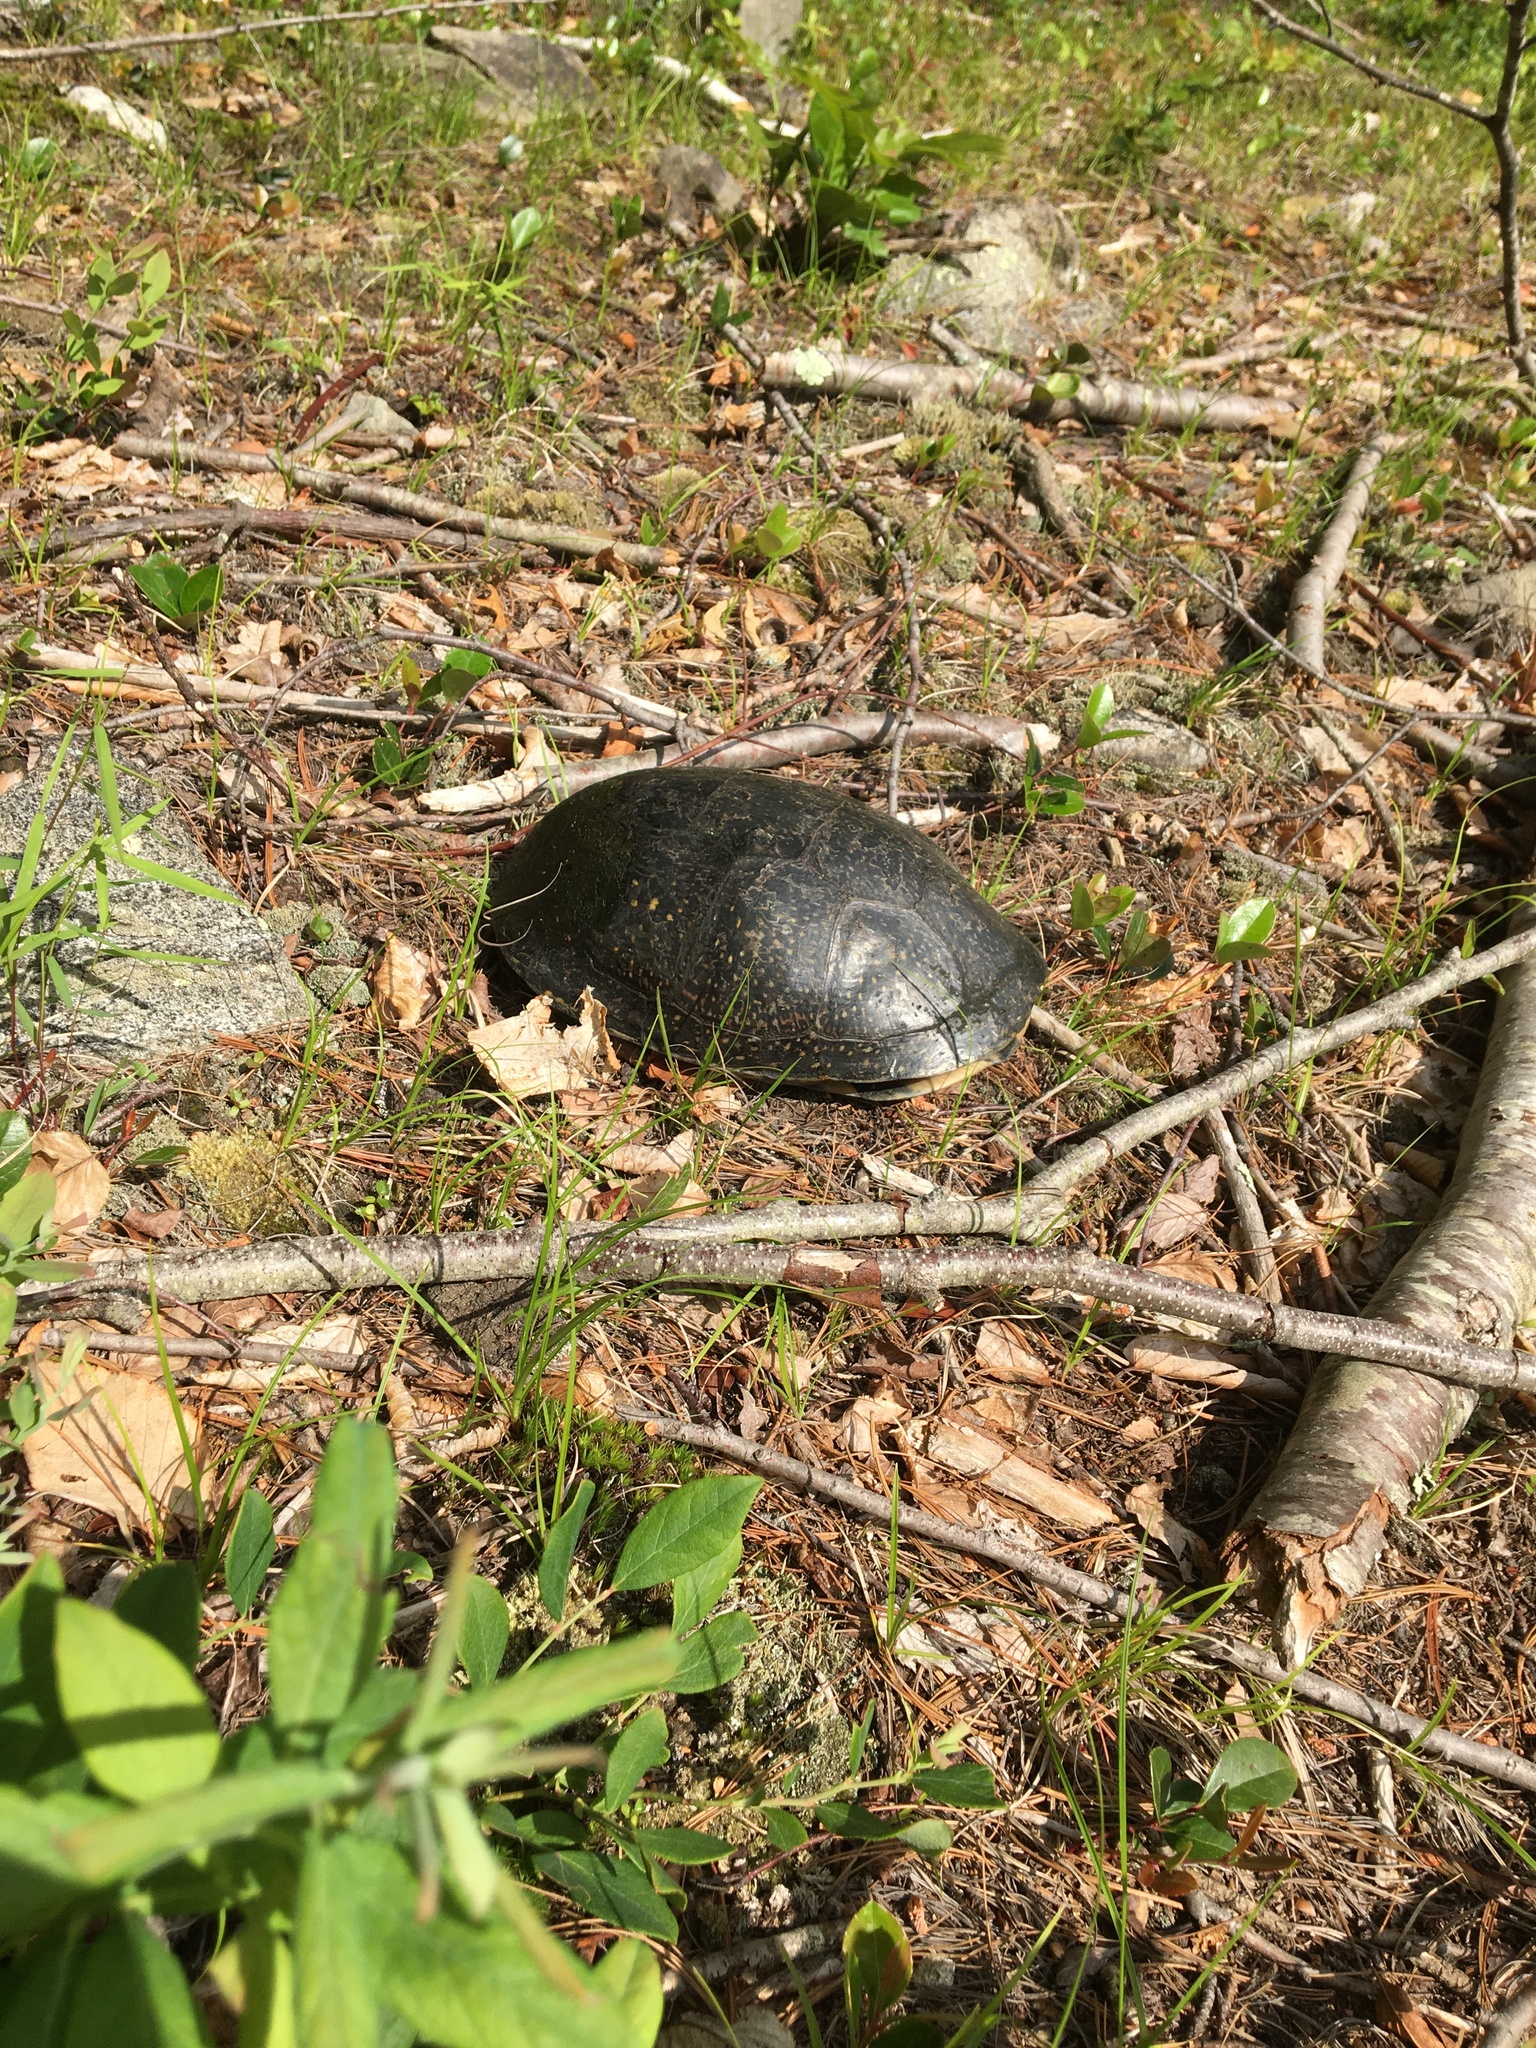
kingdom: Animalia
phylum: Chordata
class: Testudines
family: Emydidae
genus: Emys
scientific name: Emys blandingii
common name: Blanding's turtle
